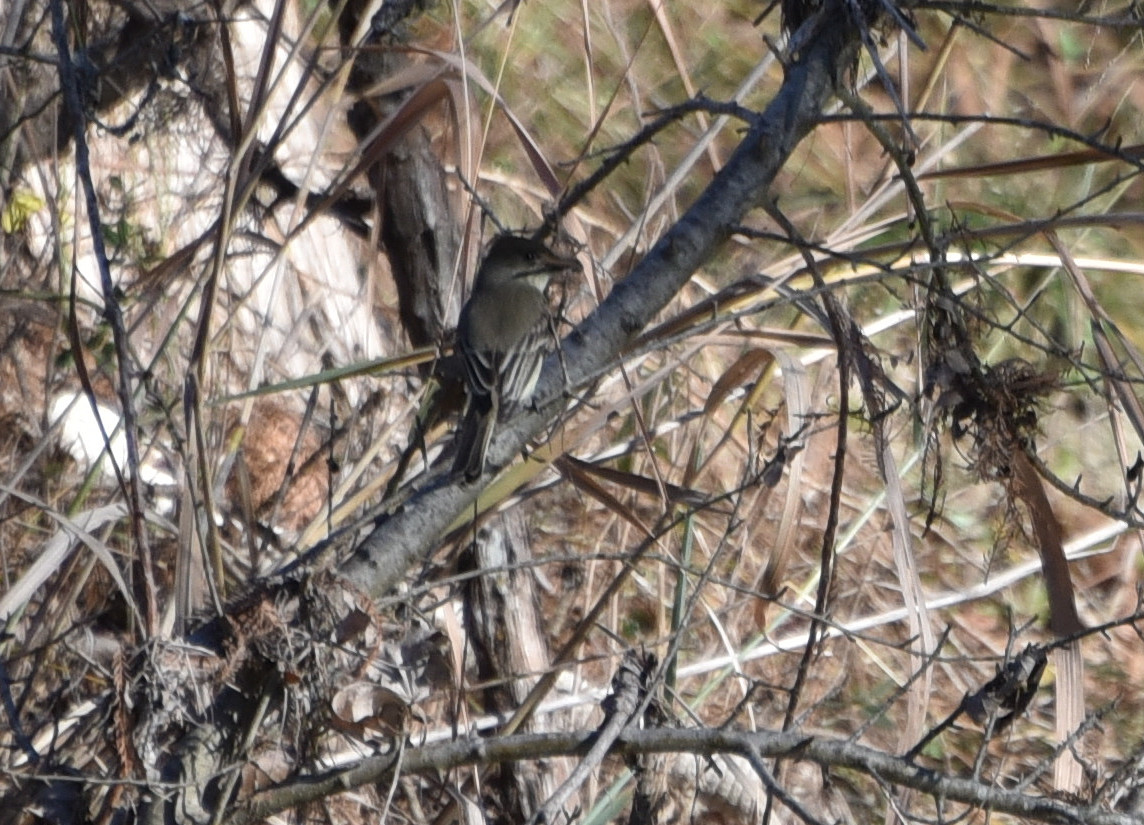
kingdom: Animalia
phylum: Chordata
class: Aves
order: Passeriformes
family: Tyrannidae
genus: Sayornis
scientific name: Sayornis phoebe
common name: Eastern phoebe
